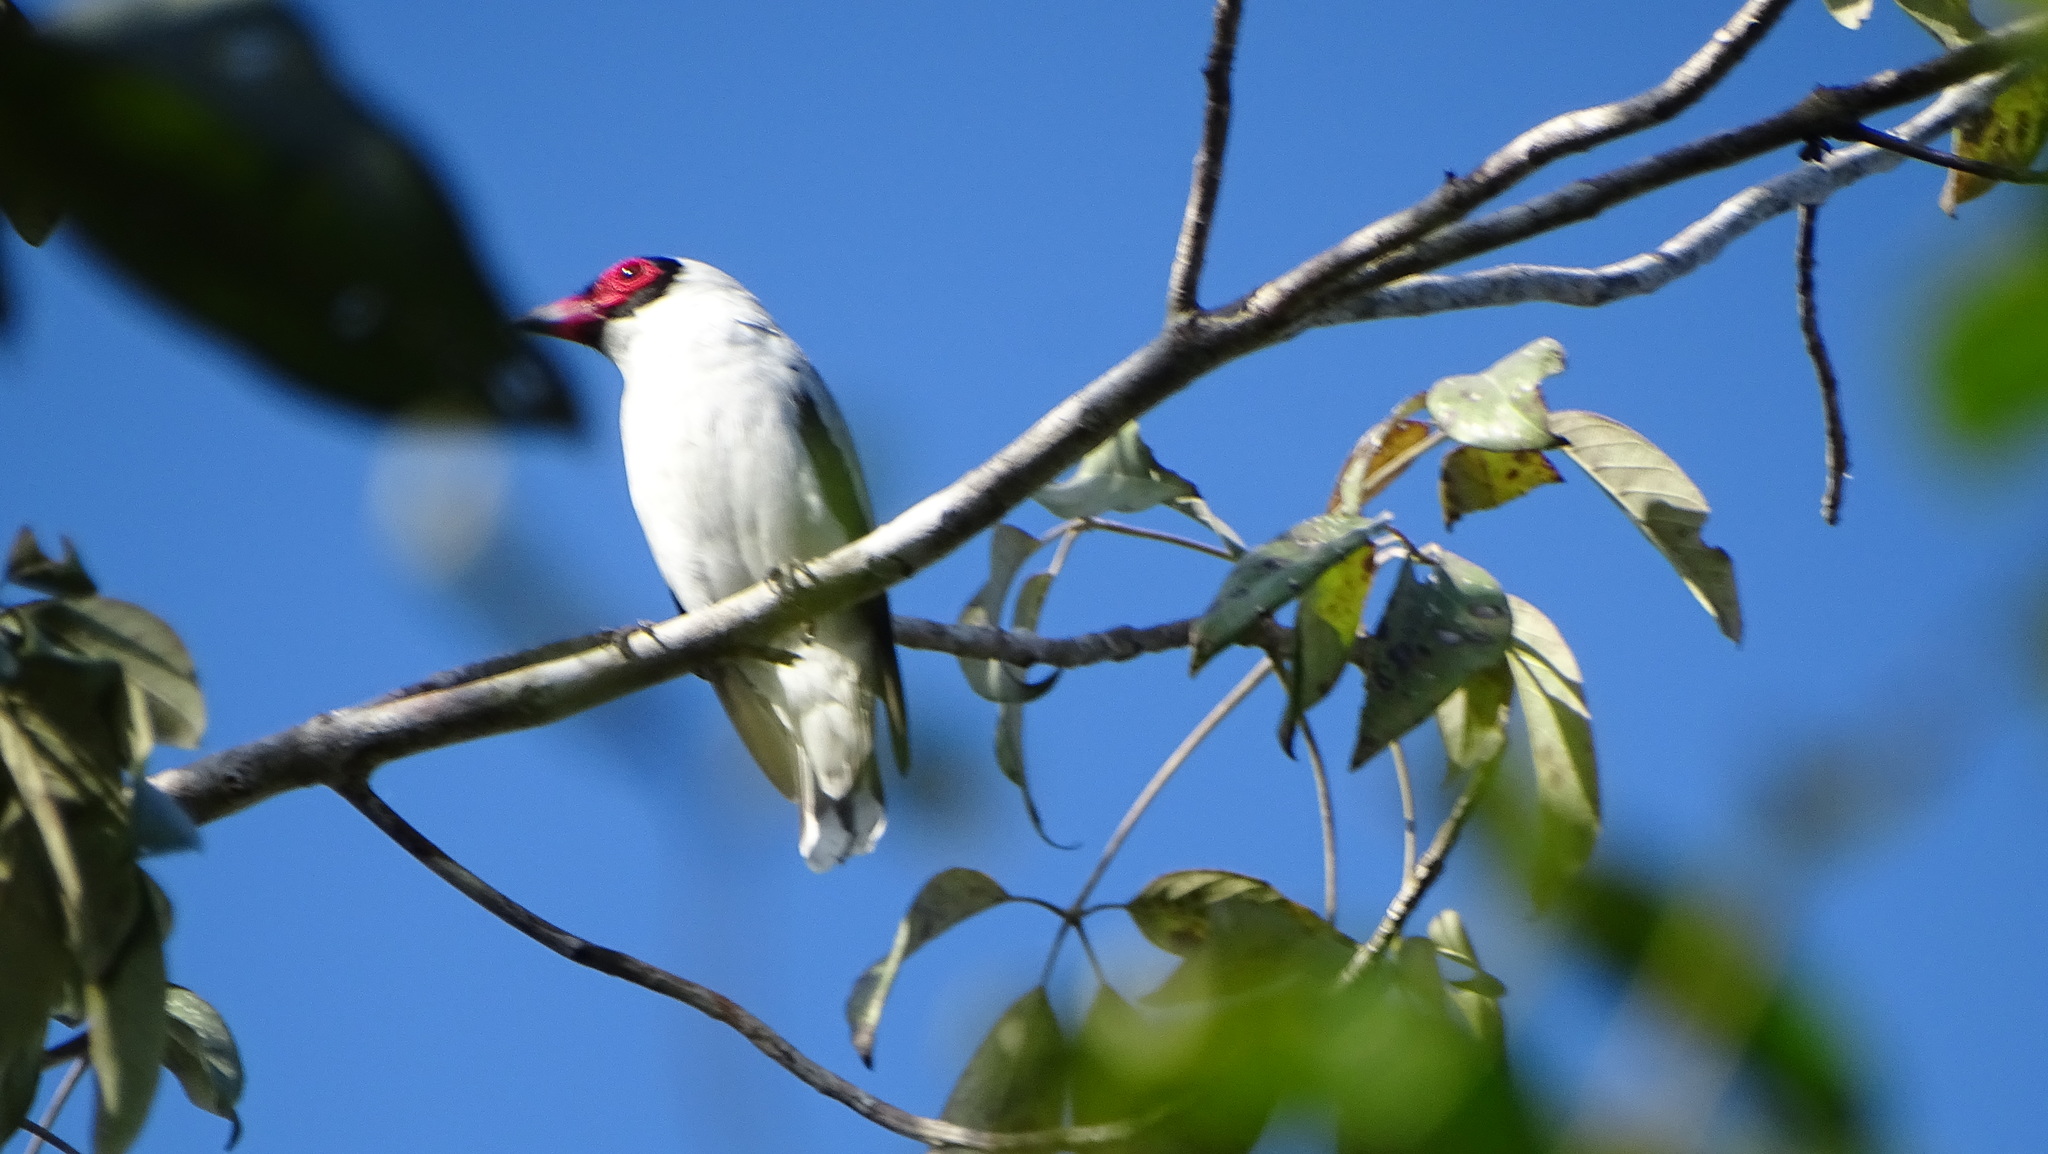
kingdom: Animalia
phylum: Chordata
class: Aves
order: Passeriformes
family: Cotingidae
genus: Tityra
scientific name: Tityra semifasciata
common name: Masked tityra
